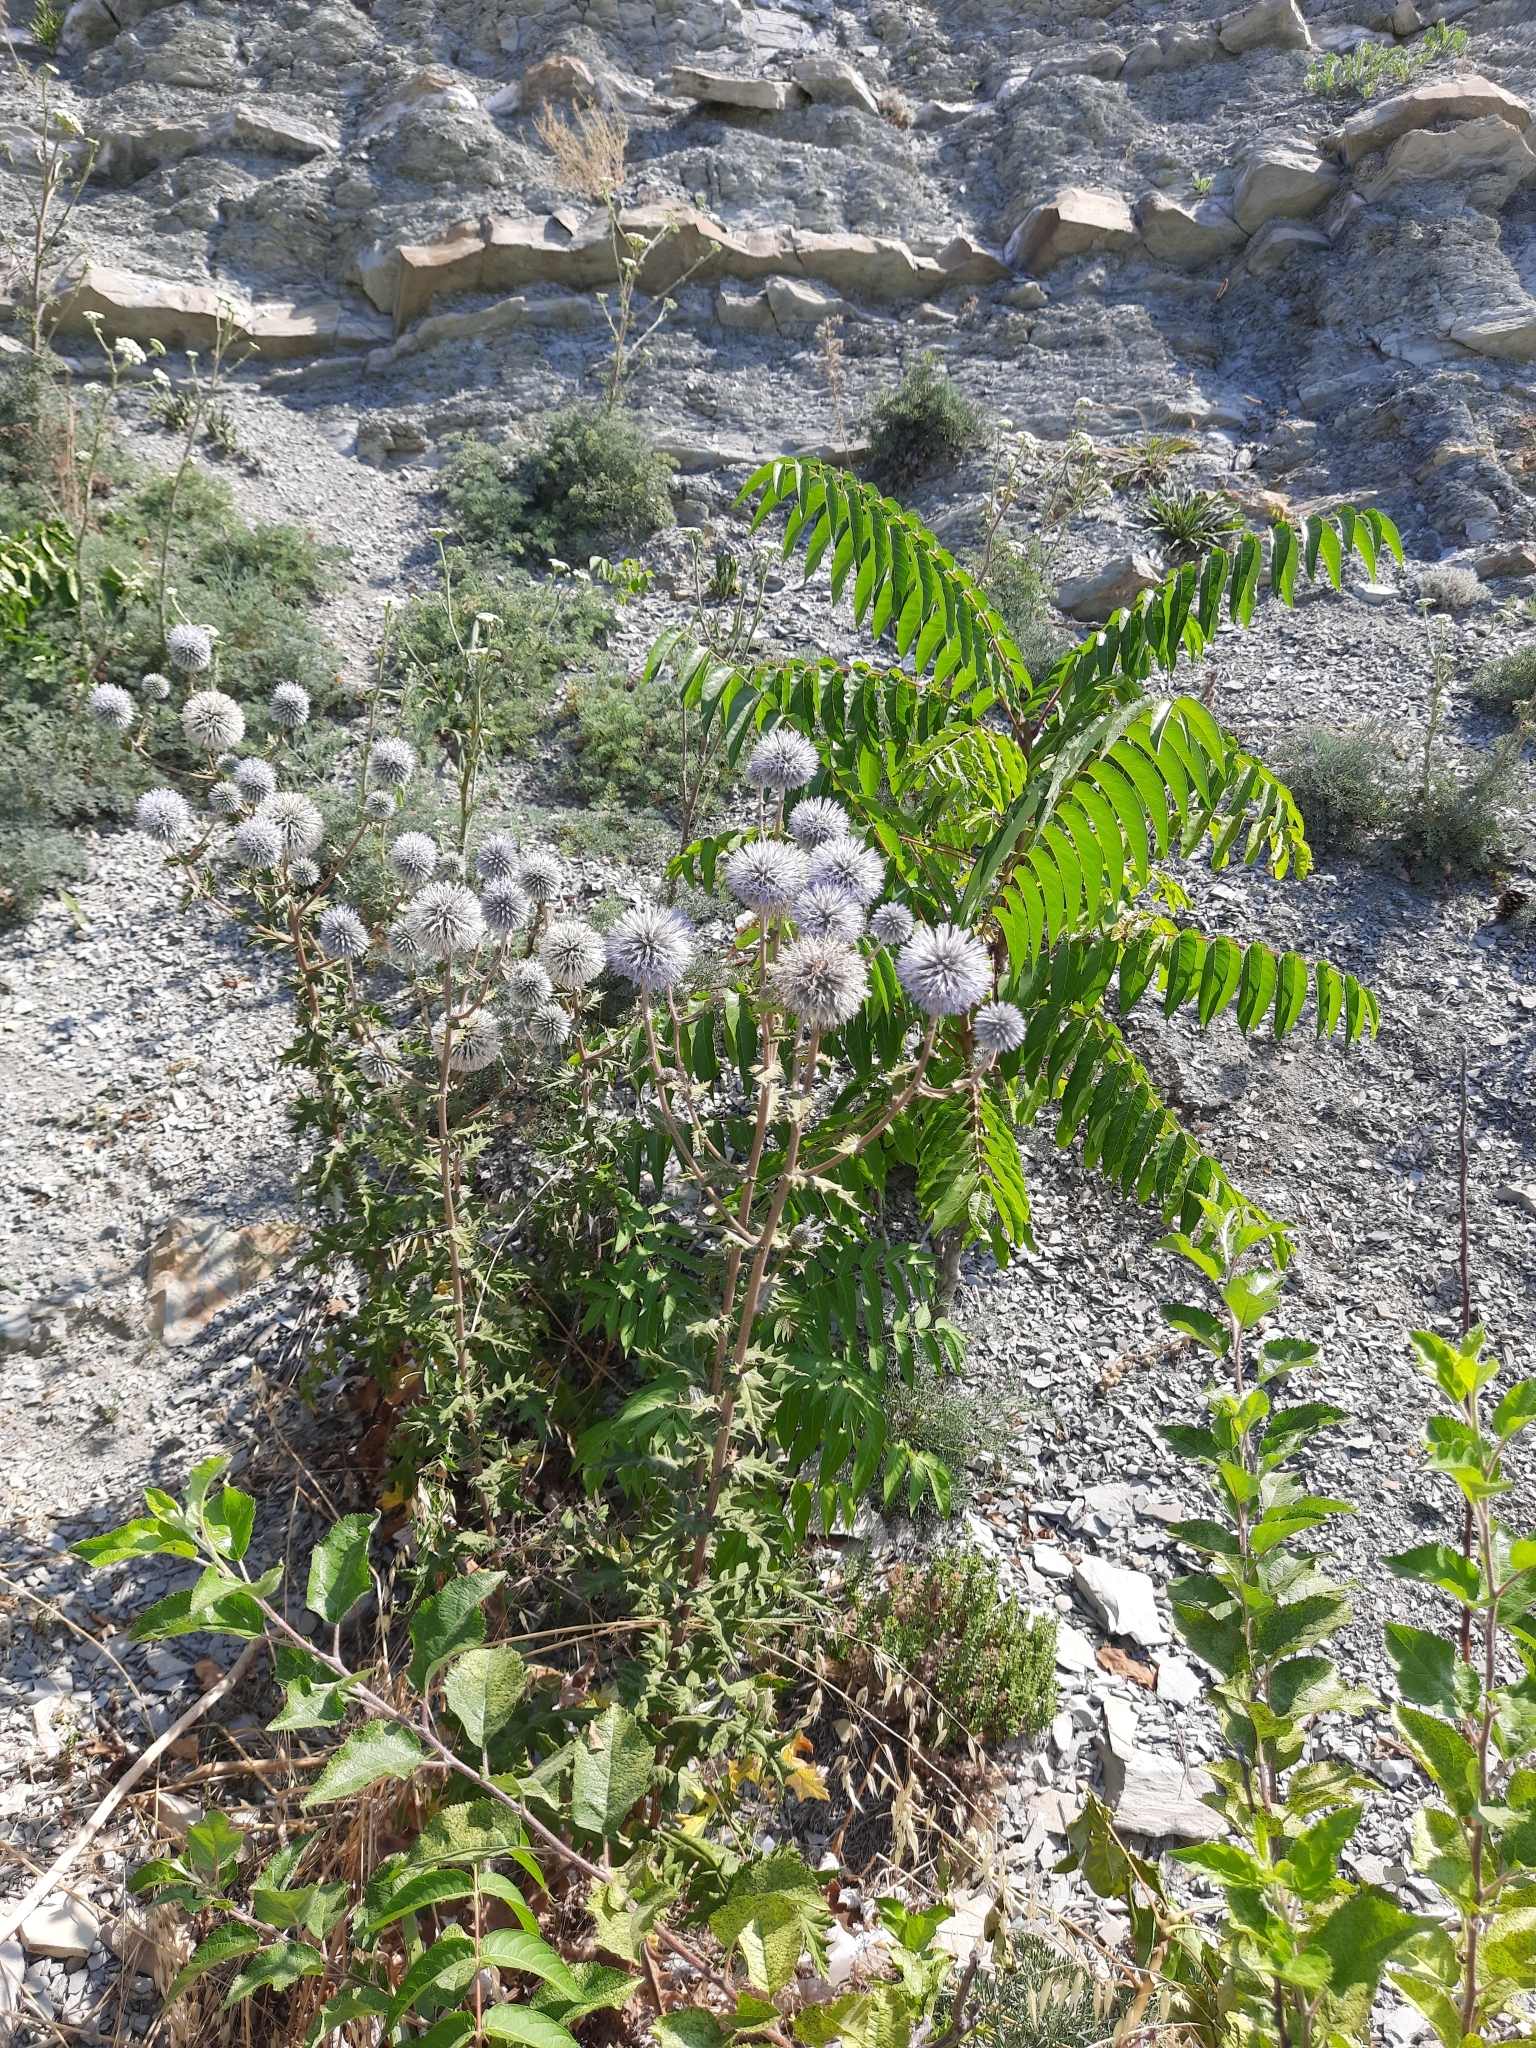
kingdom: Plantae
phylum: Tracheophyta
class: Magnoliopsida
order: Asterales
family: Asteraceae
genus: Echinops
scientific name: Echinops sphaerocephalus
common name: Glandular globe-thistle
